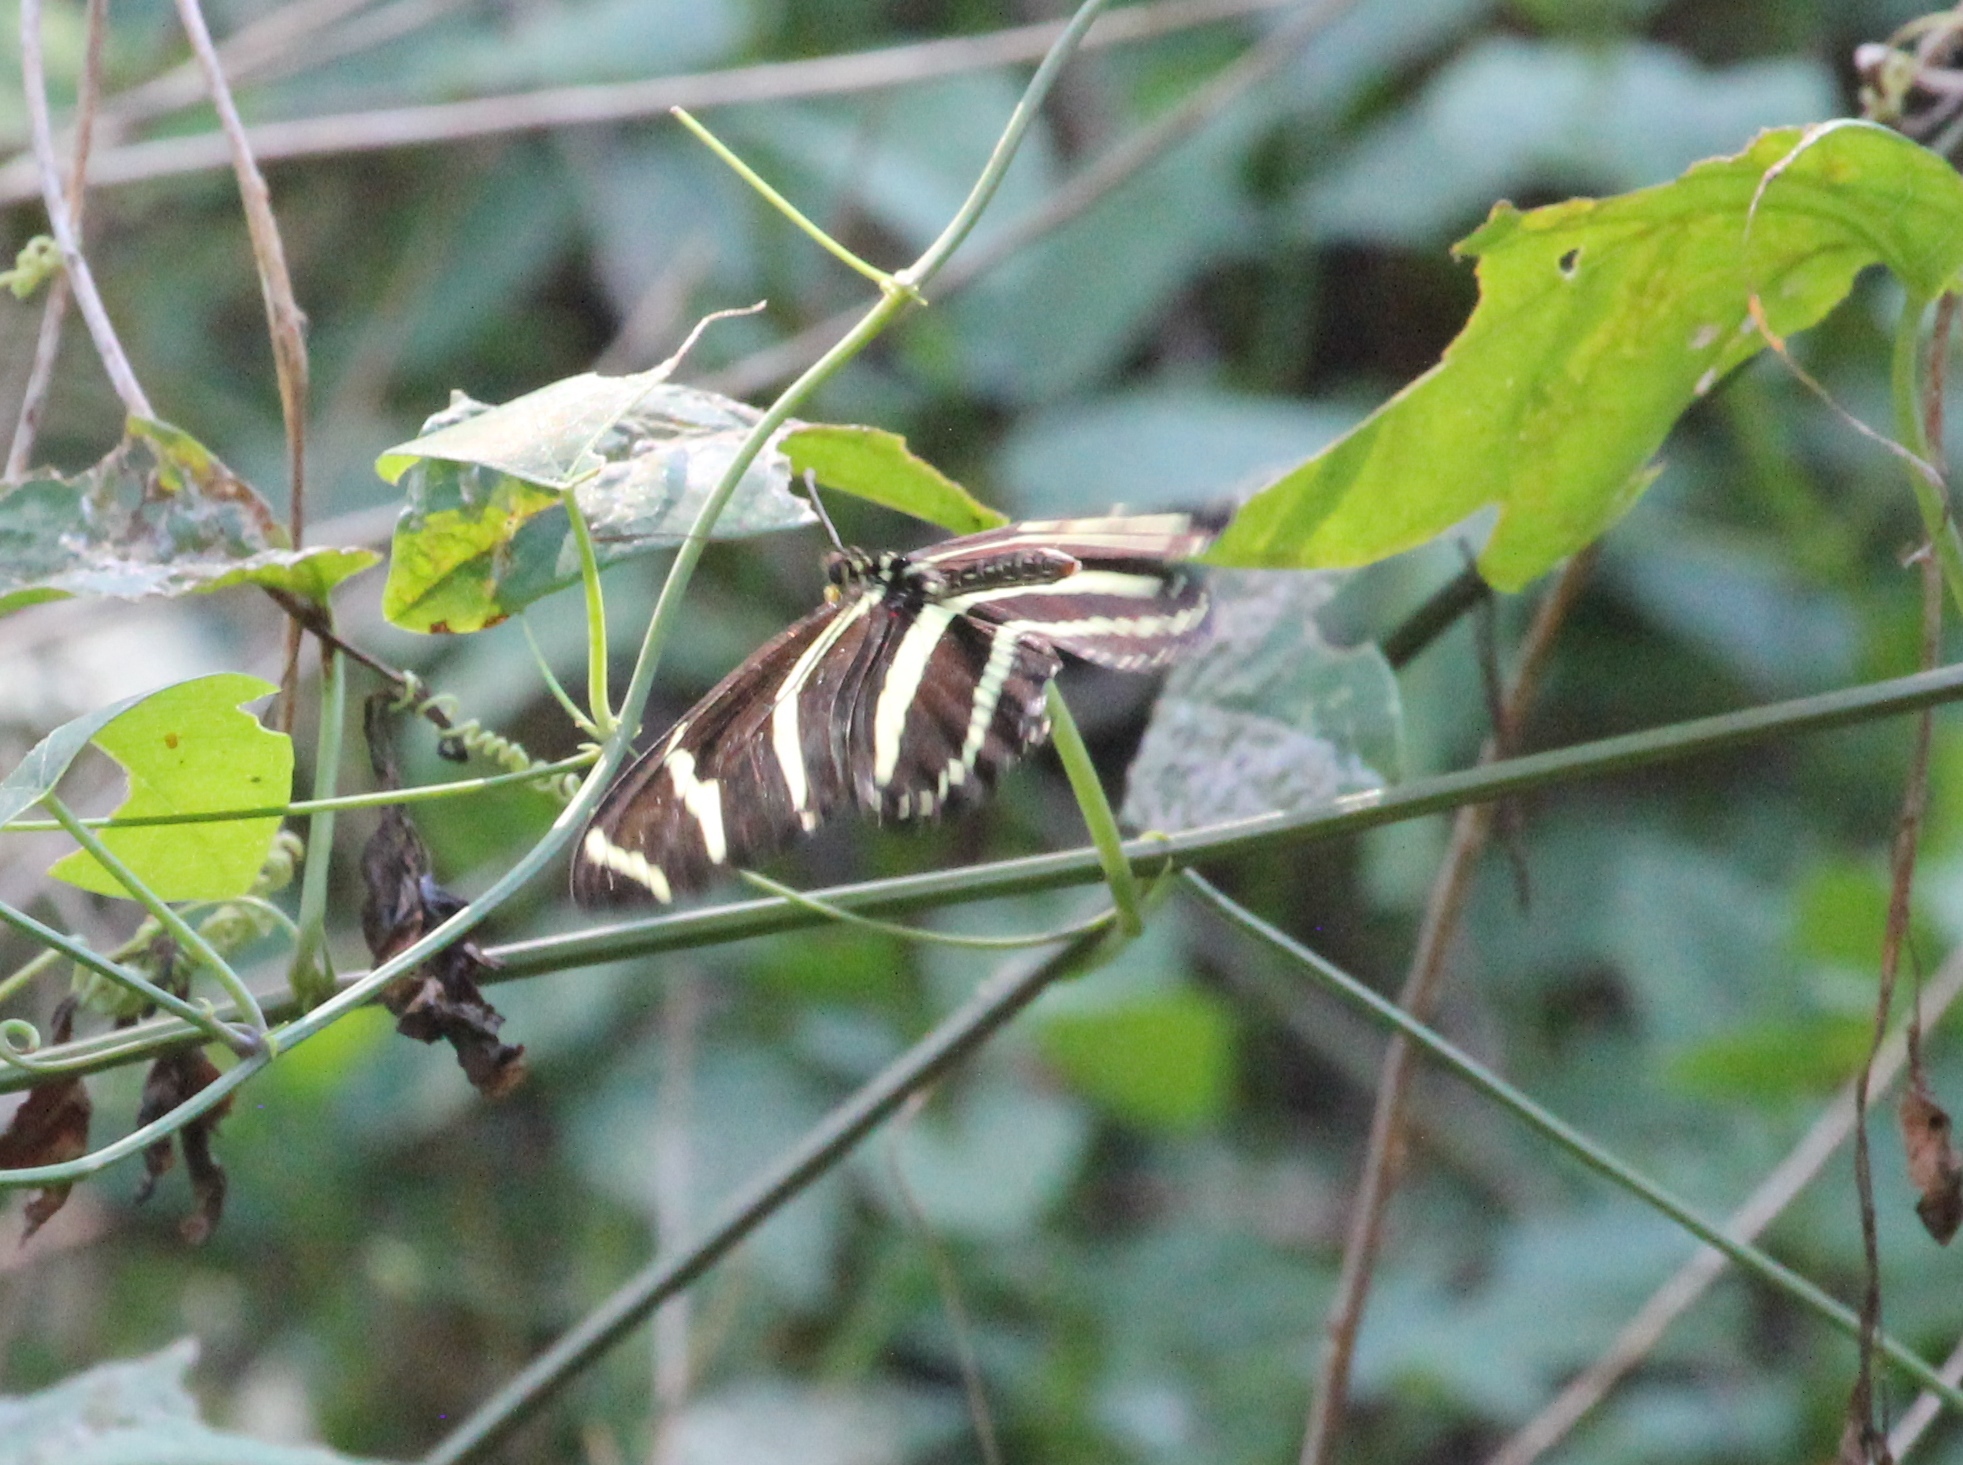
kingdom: Animalia
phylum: Arthropoda
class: Insecta
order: Lepidoptera
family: Nymphalidae
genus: Heliconius
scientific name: Heliconius charithonia
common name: Zebra long wing
